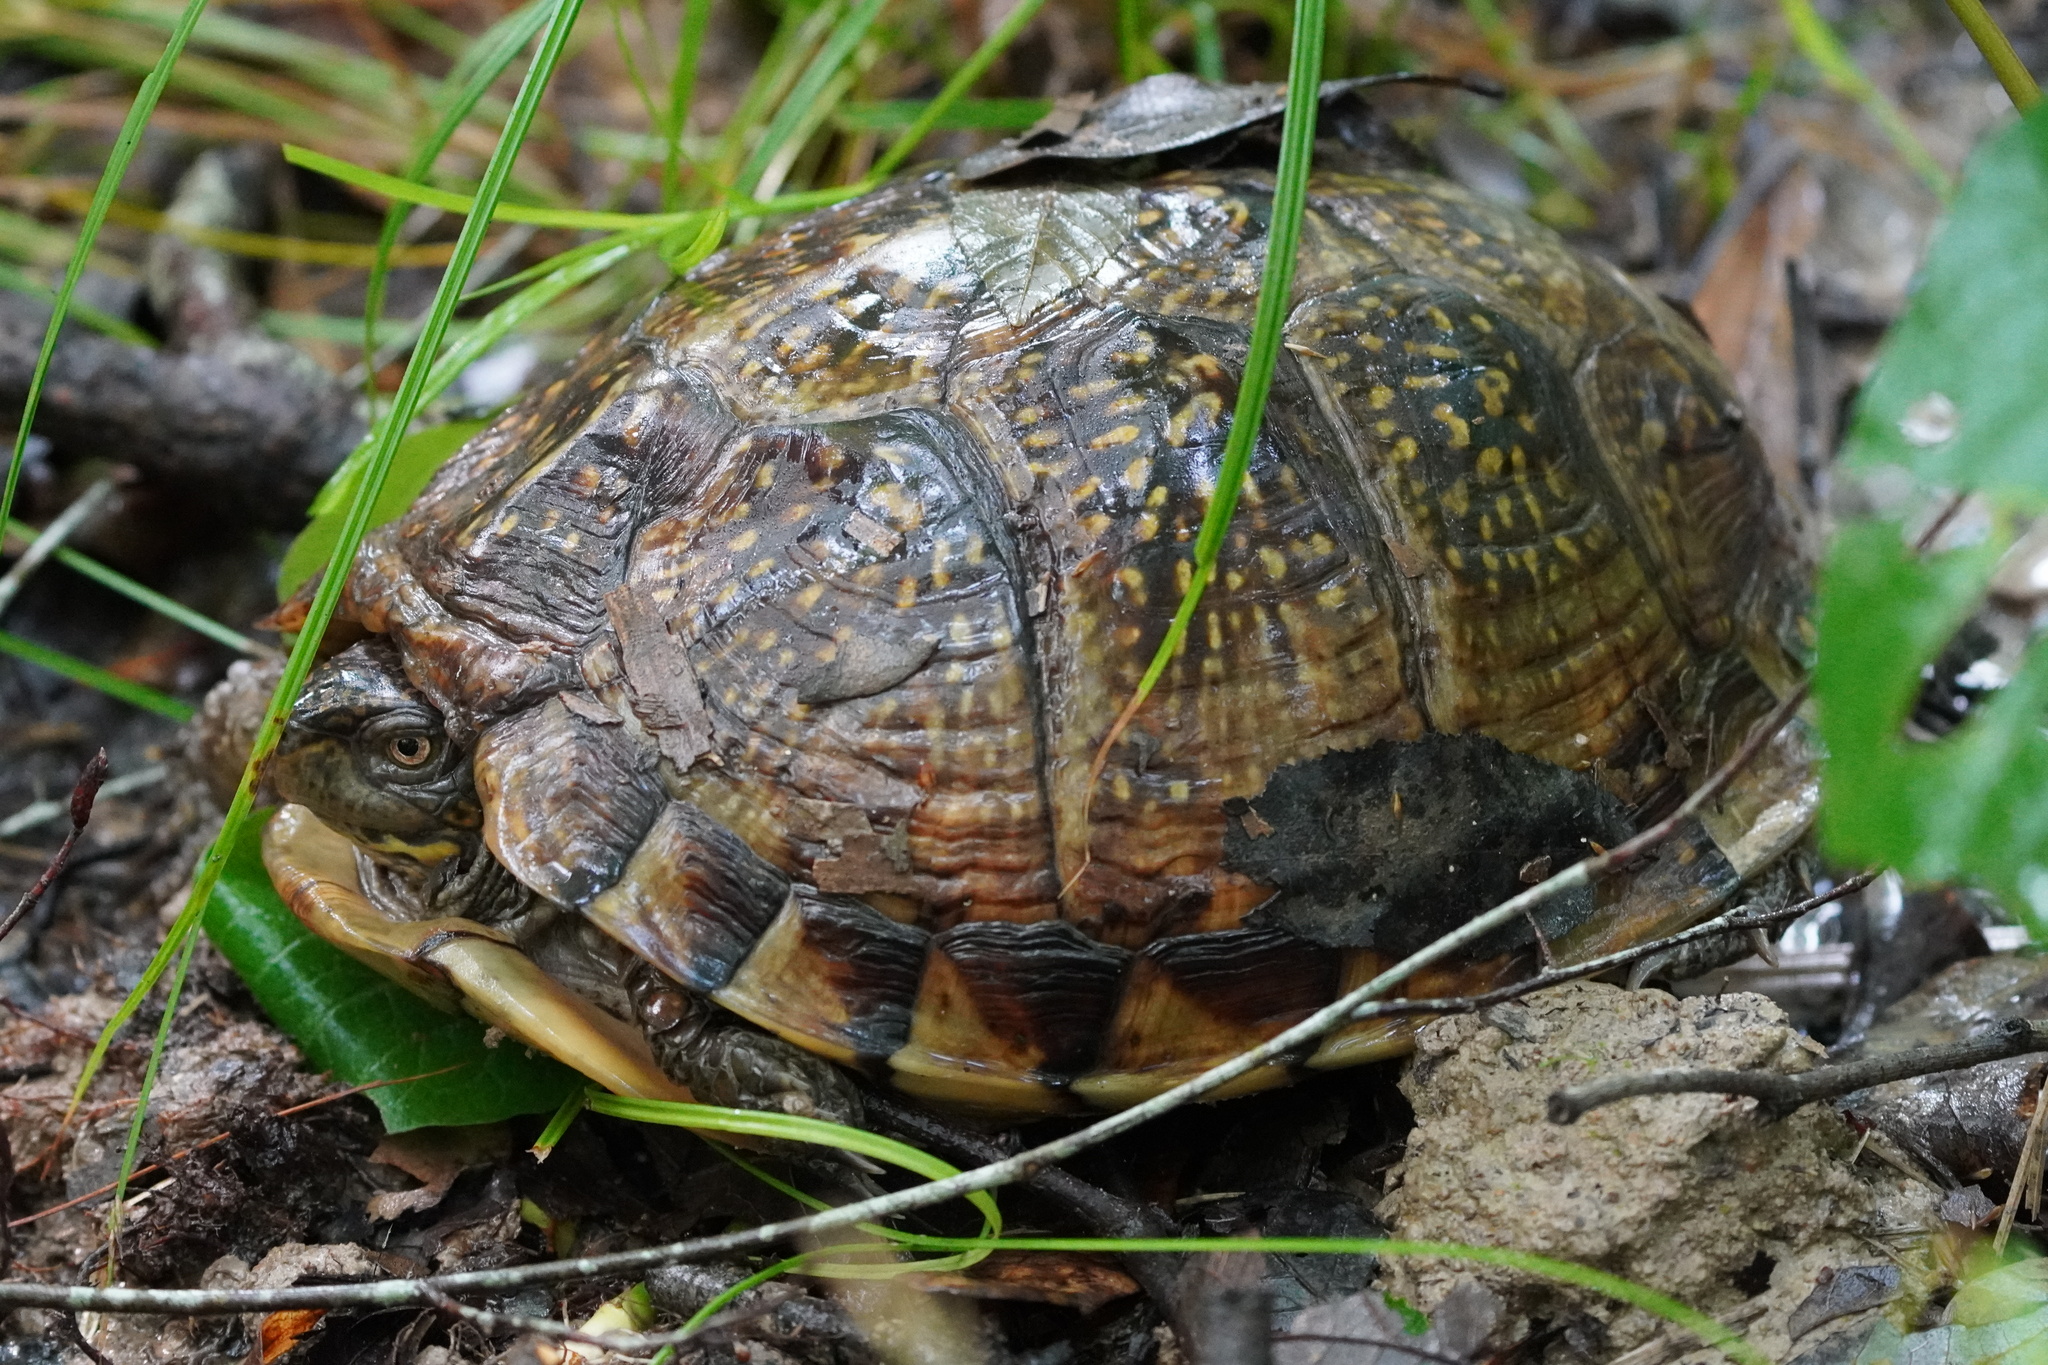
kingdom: Animalia
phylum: Chordata
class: Testudines
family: Emydidae
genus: Terrapene
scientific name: Terrapene carolina
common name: Common box turtle
